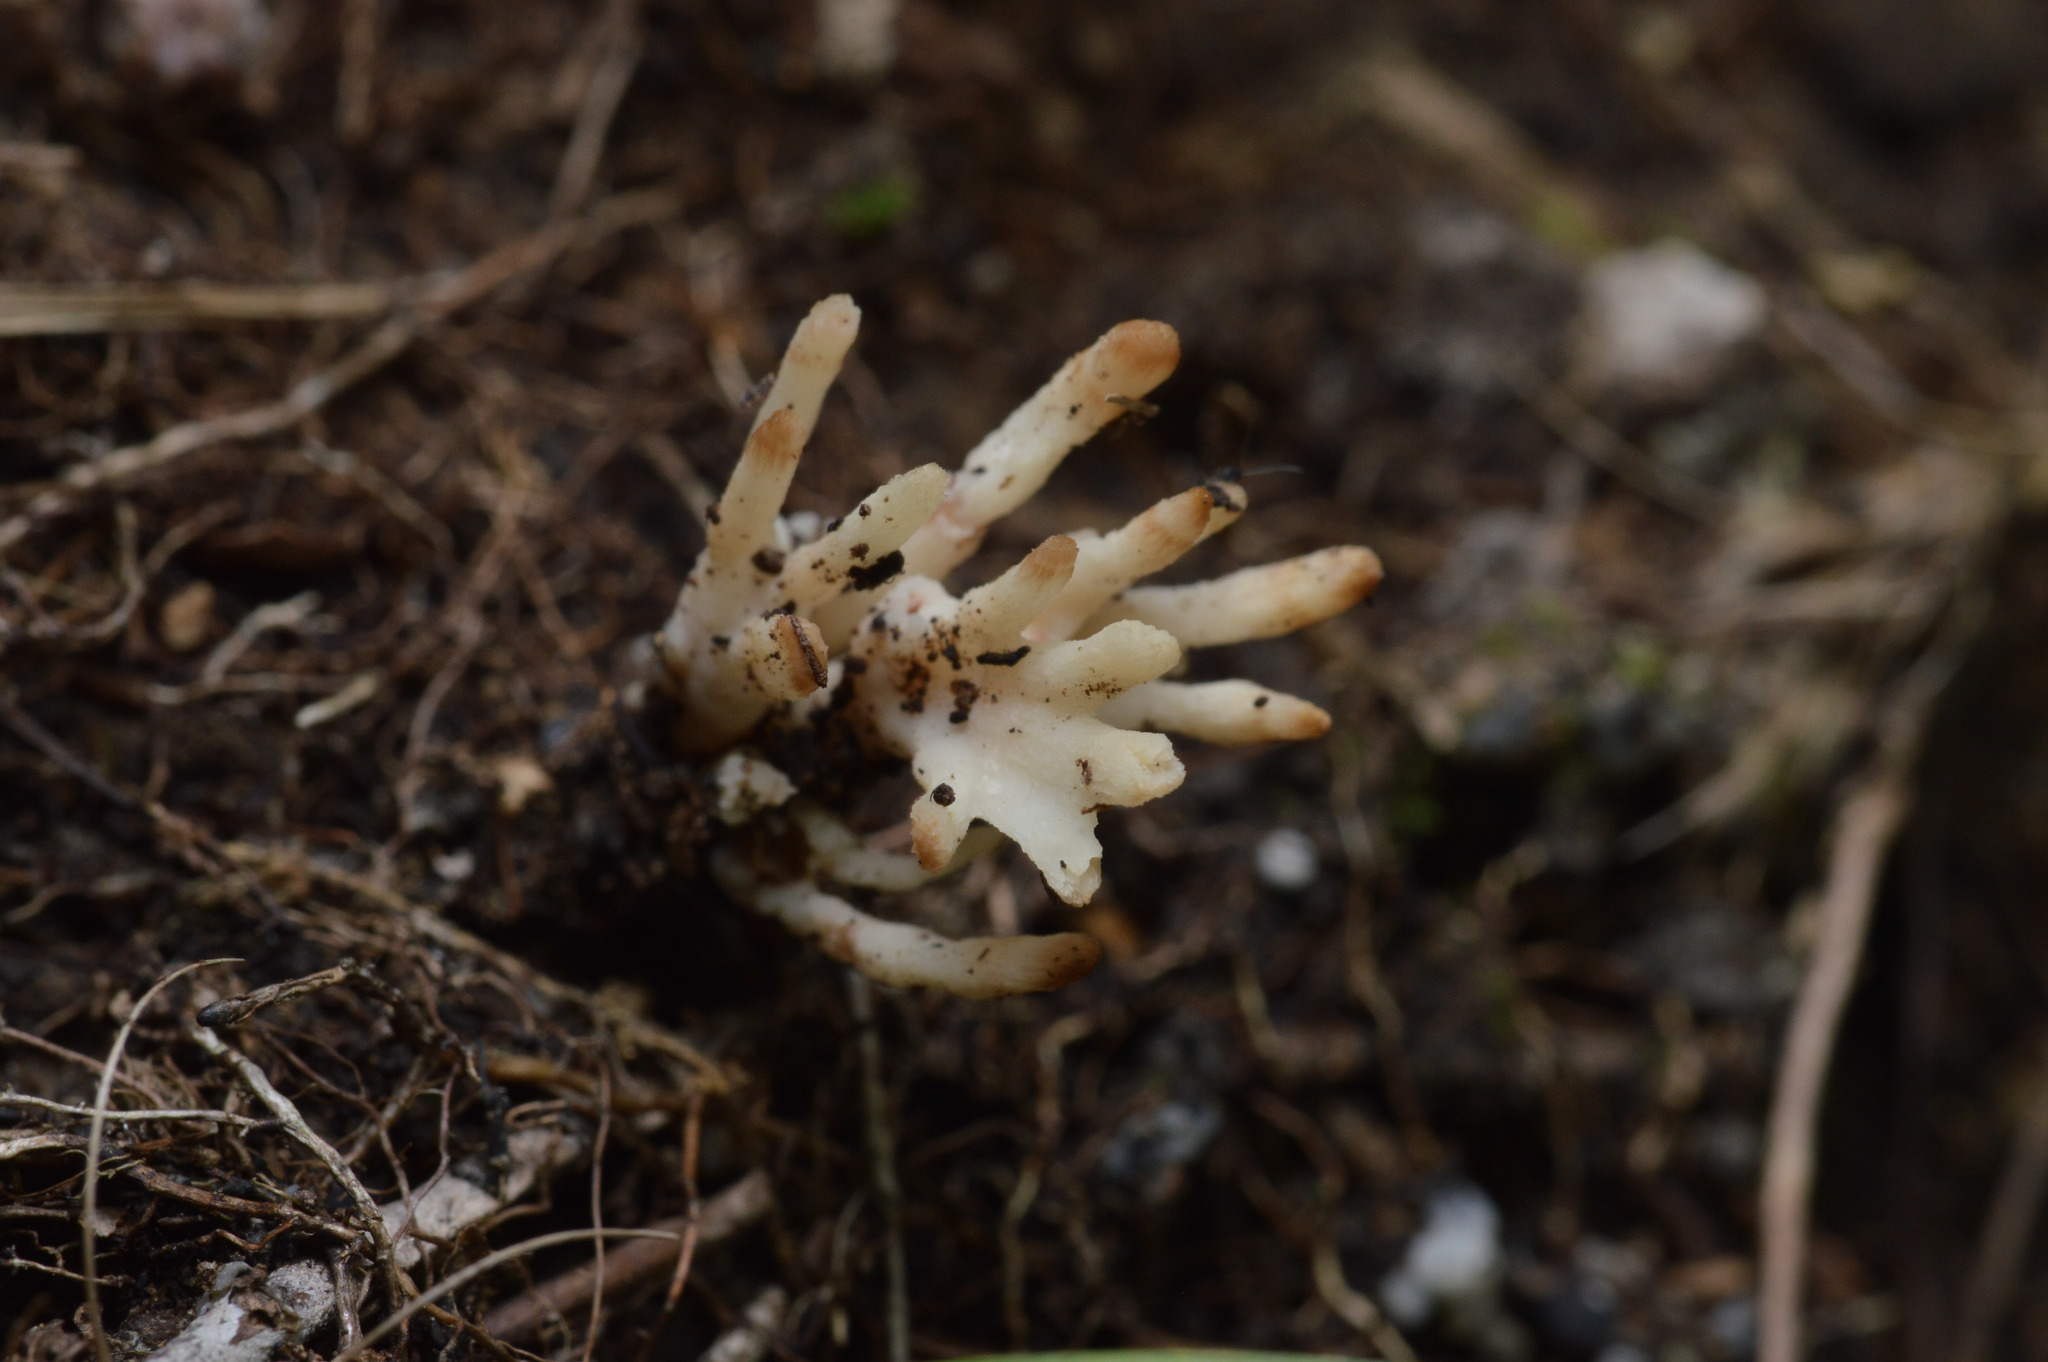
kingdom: Fungi
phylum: Basidiomycota
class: Agaricomycetes
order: Sebacinales
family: Sebacinaceae
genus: Sebacina
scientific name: Sebacina schweinitzii
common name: Jellied false coral fungus
